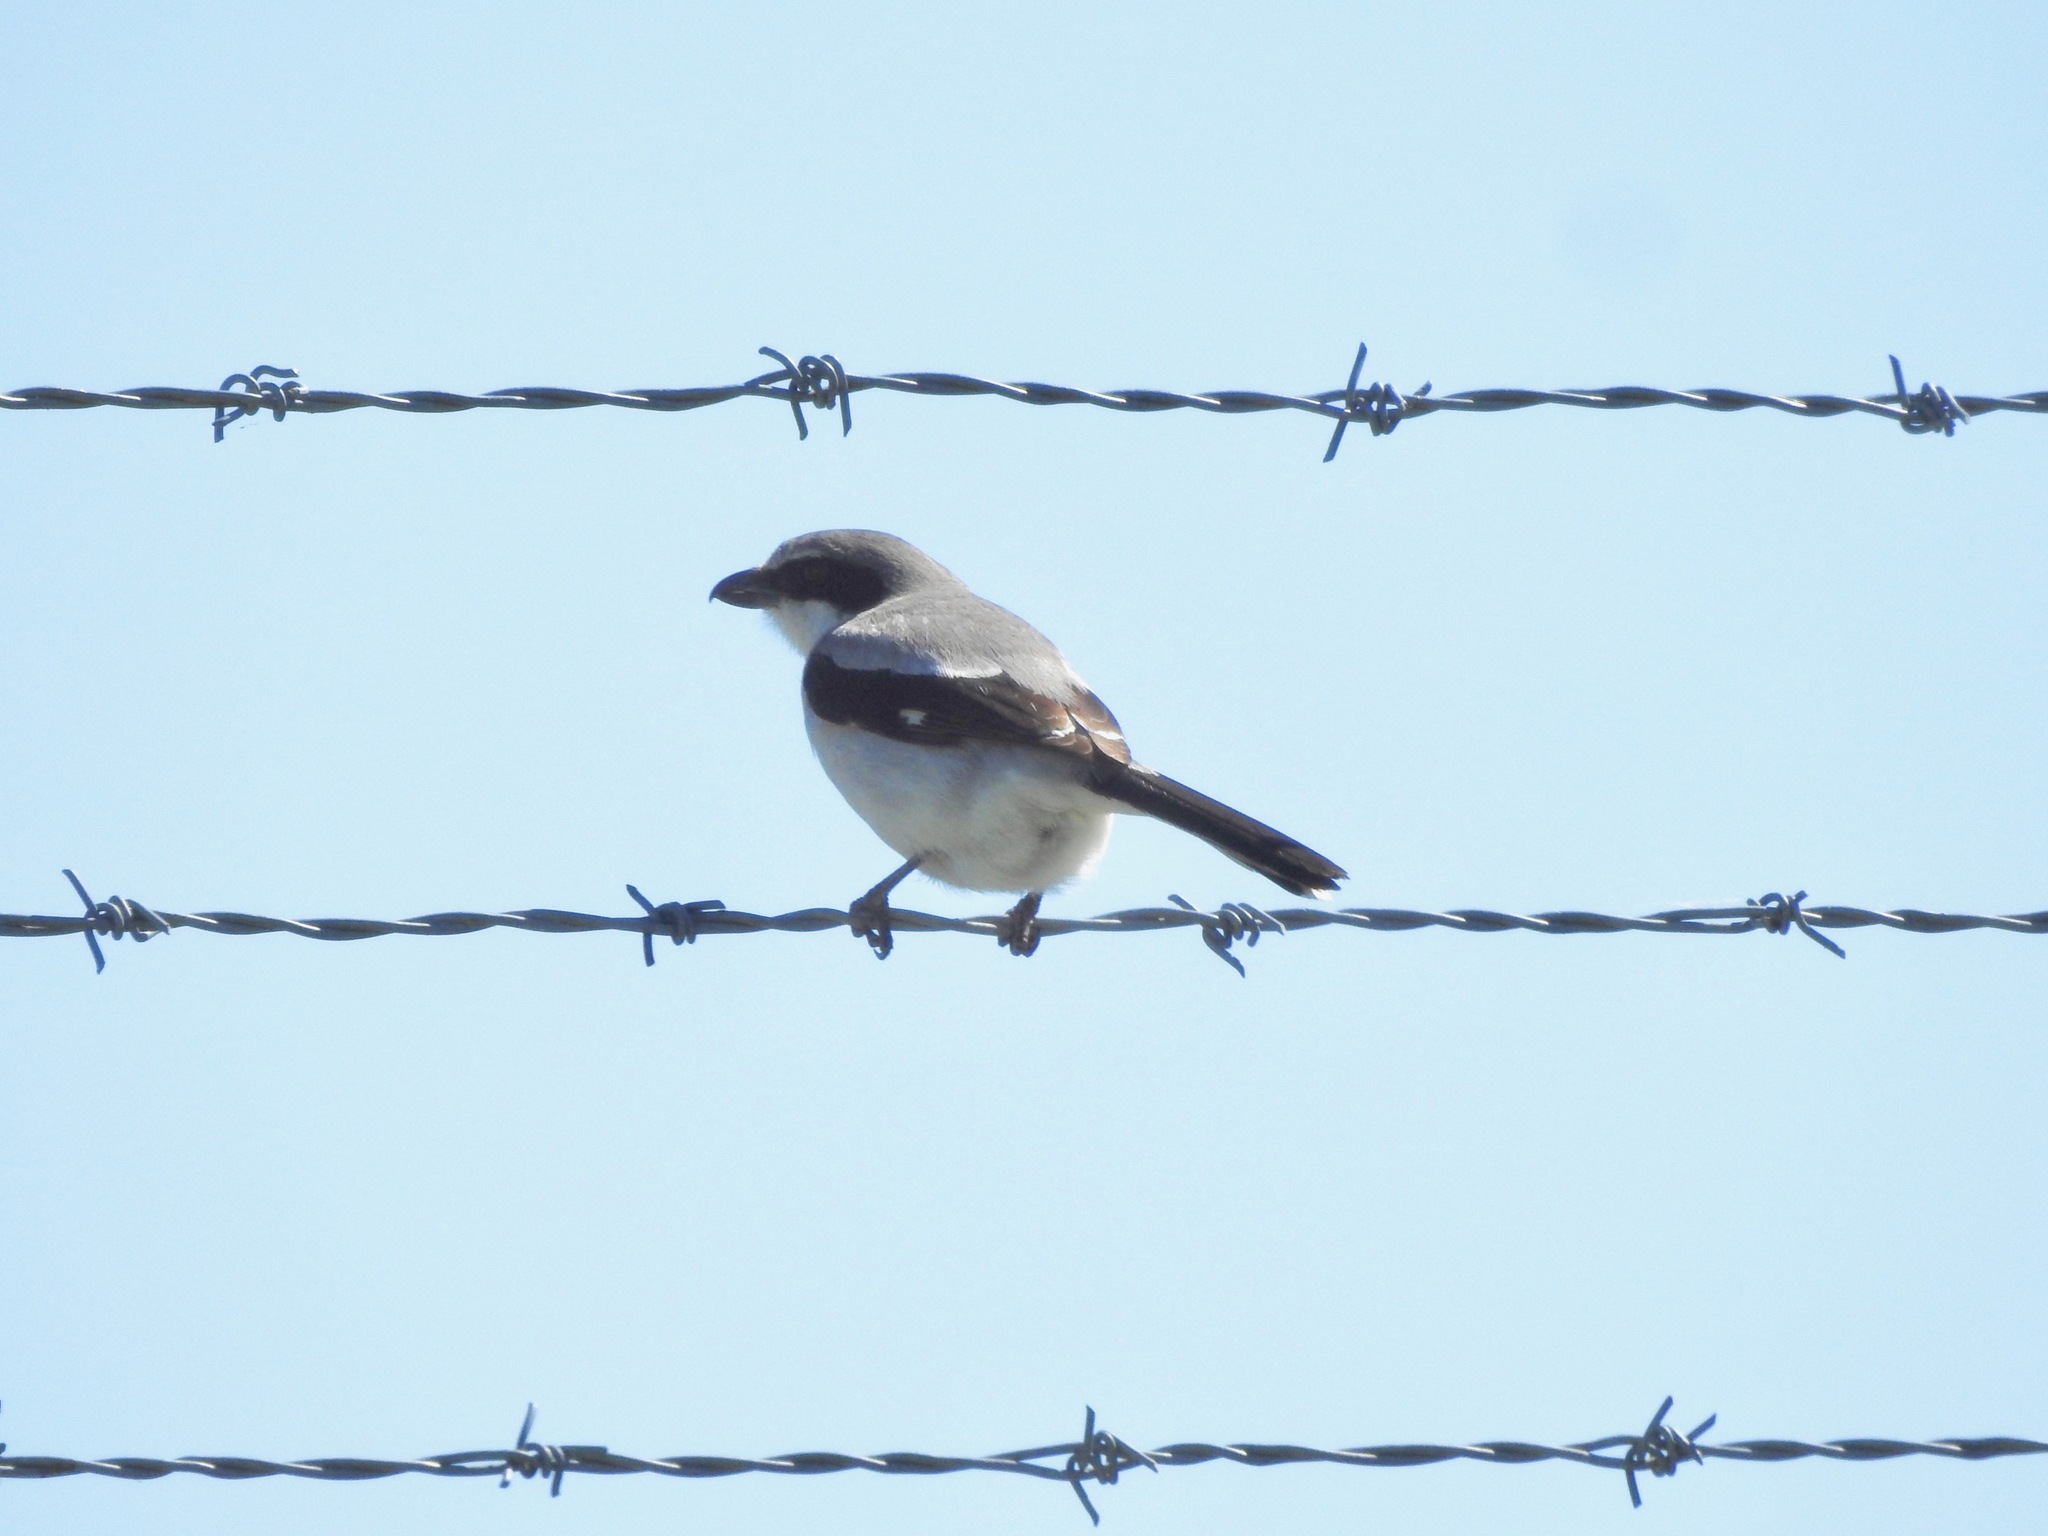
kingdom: Animalia
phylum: Chordata
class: Aves
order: Passeriformes
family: Laniidae
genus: Lanius
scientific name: Lanius ludovicianus
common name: Loggerhead shrike
